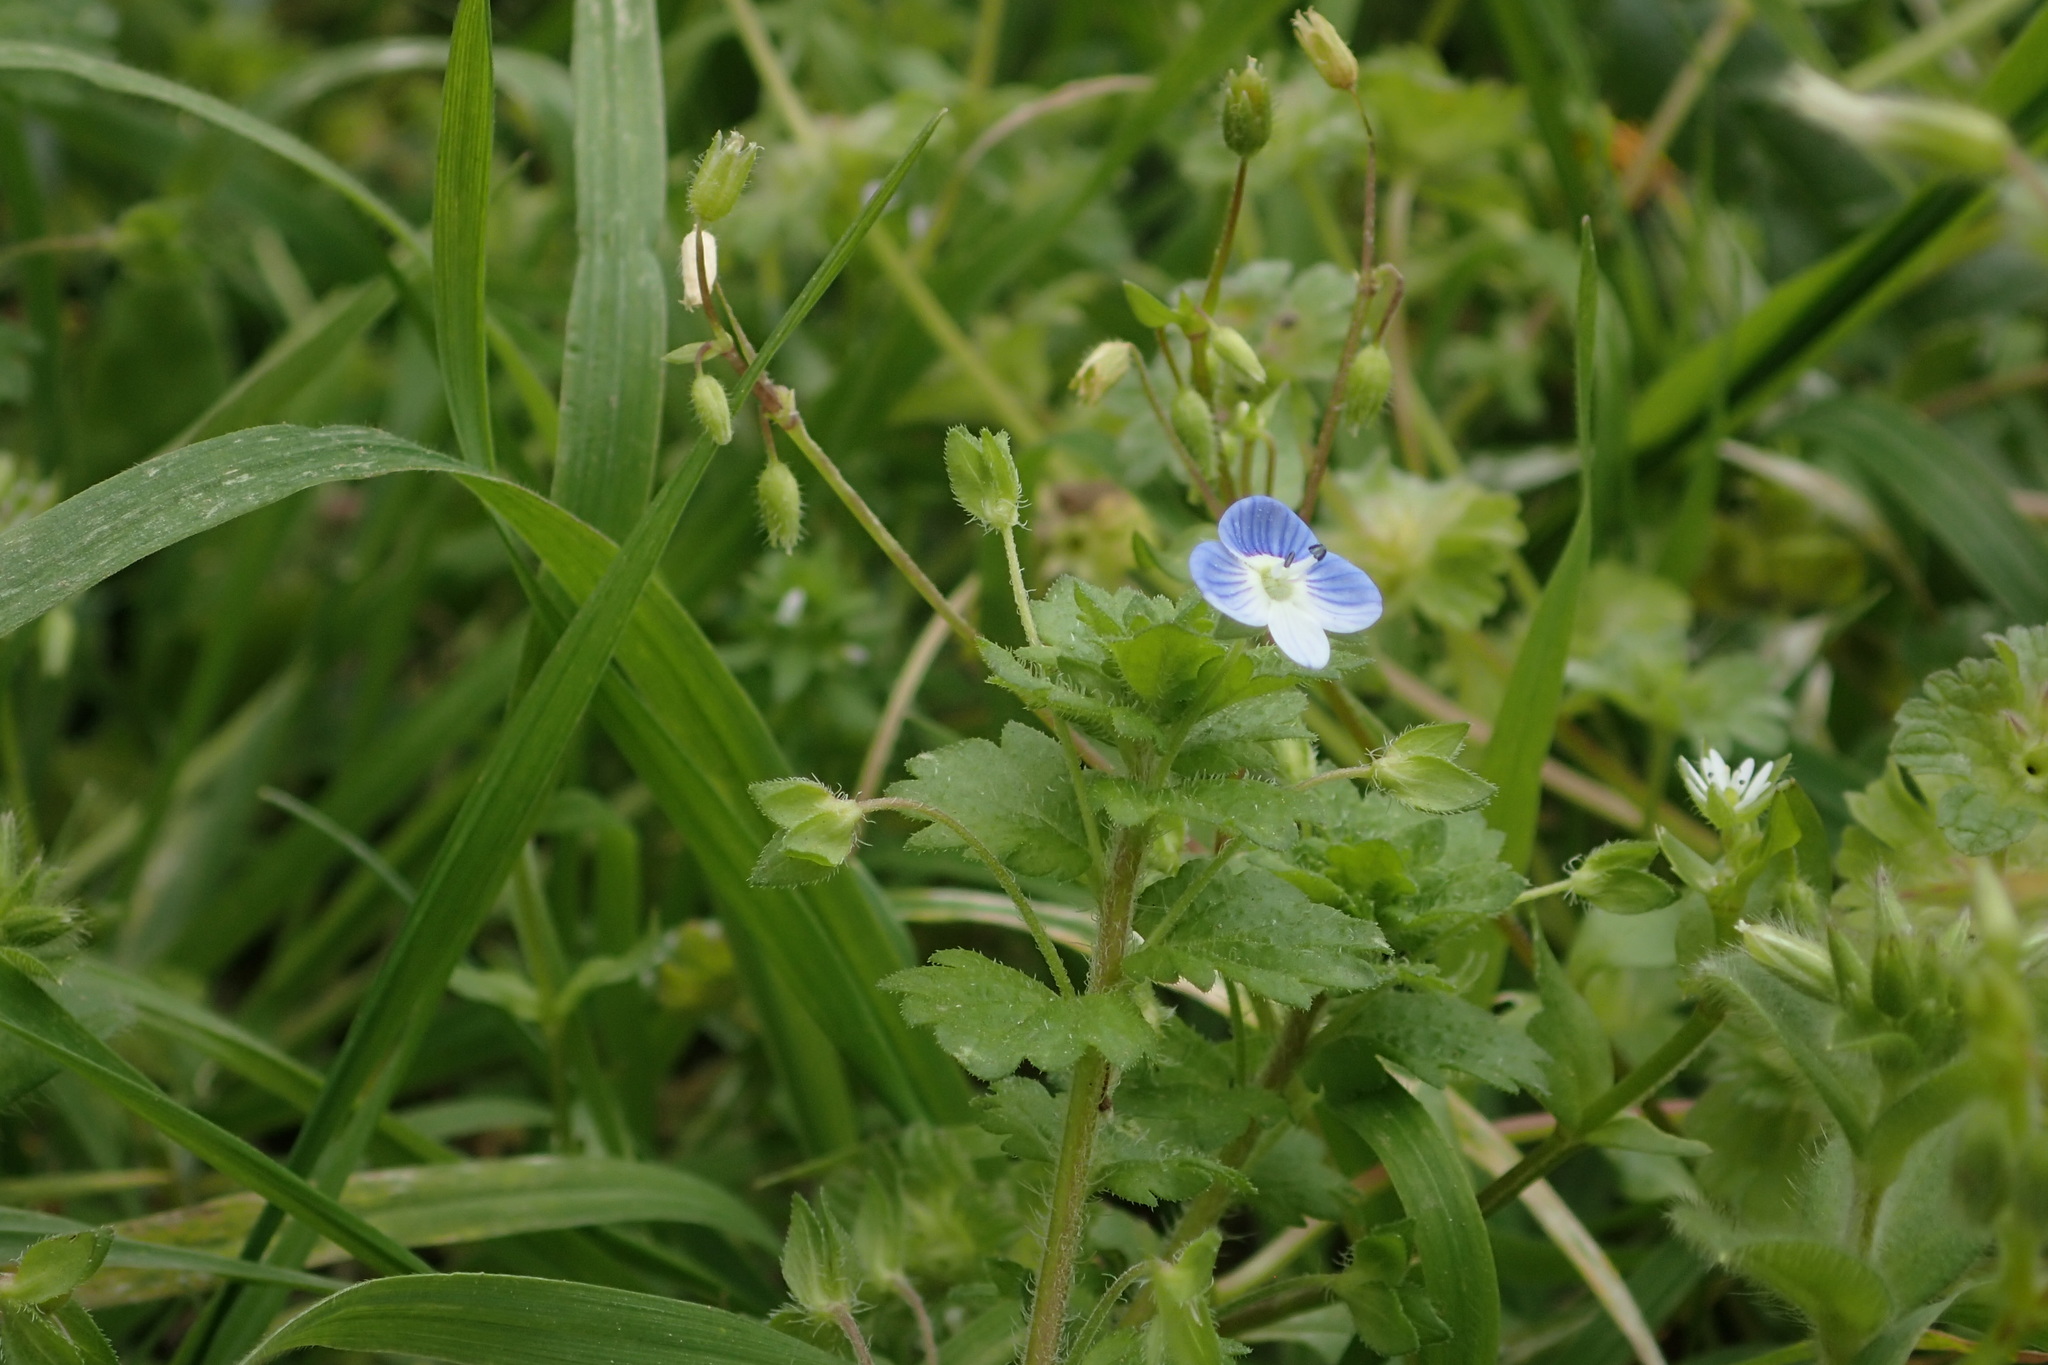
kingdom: Plantae
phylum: Tracheophyta
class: Magnoliopsida
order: Lamiales
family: Plantaginaceae
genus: Veronica
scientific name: Veronica persica
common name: Common field-speedwell
